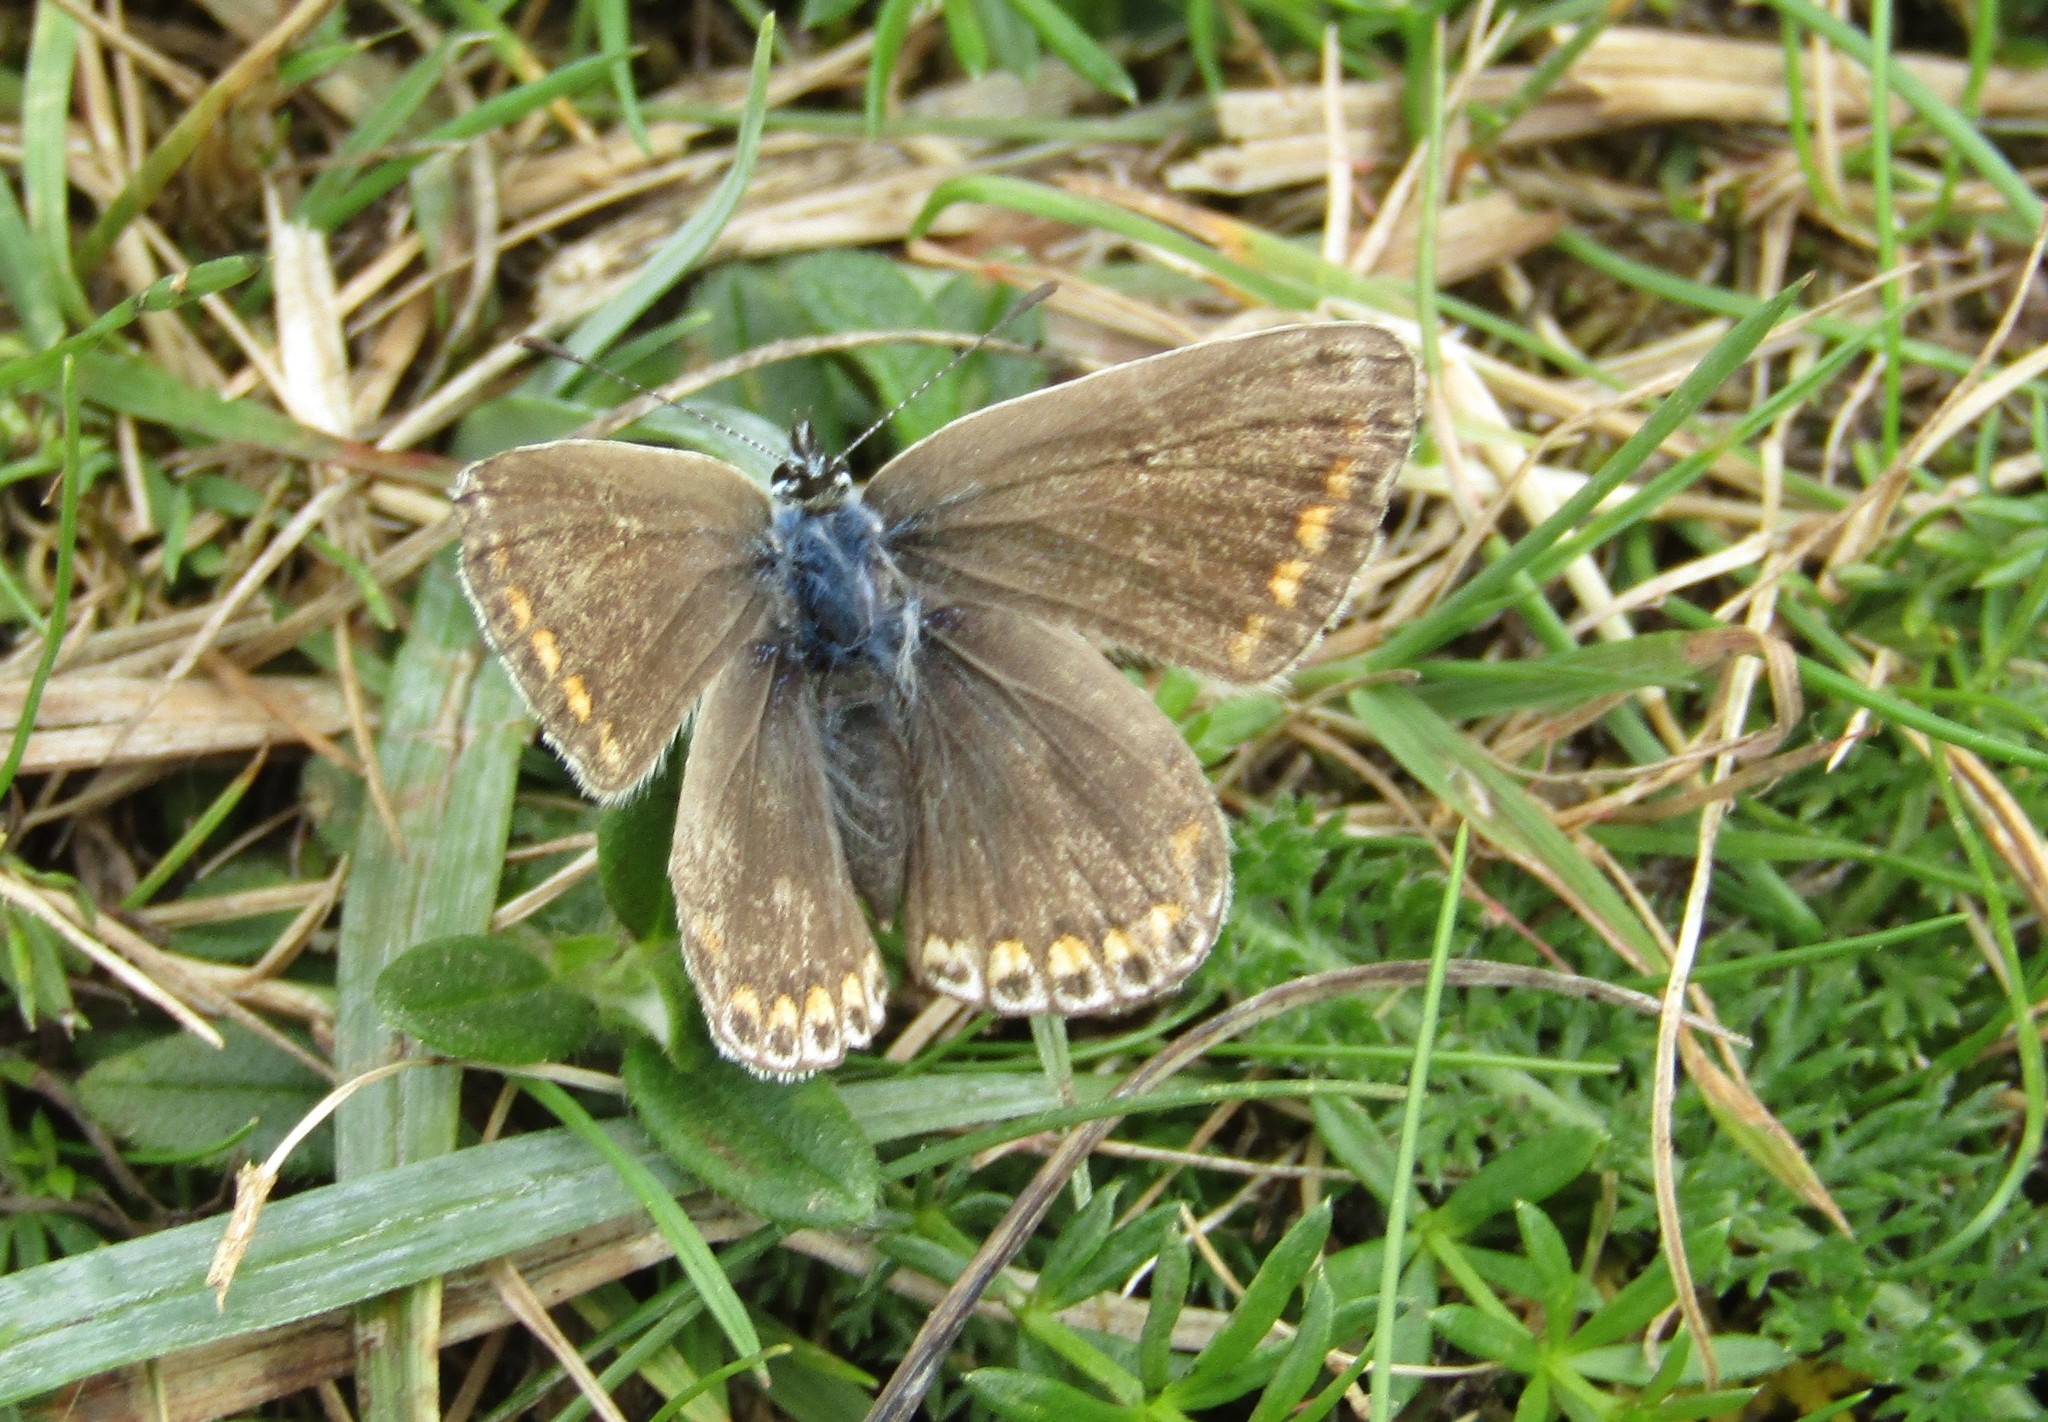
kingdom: Animalia
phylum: Arthropoda
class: Insecta
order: Lepidoptera
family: Lycaenidae
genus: Polyommatus
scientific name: Polyommatus icarus
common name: Common blue
